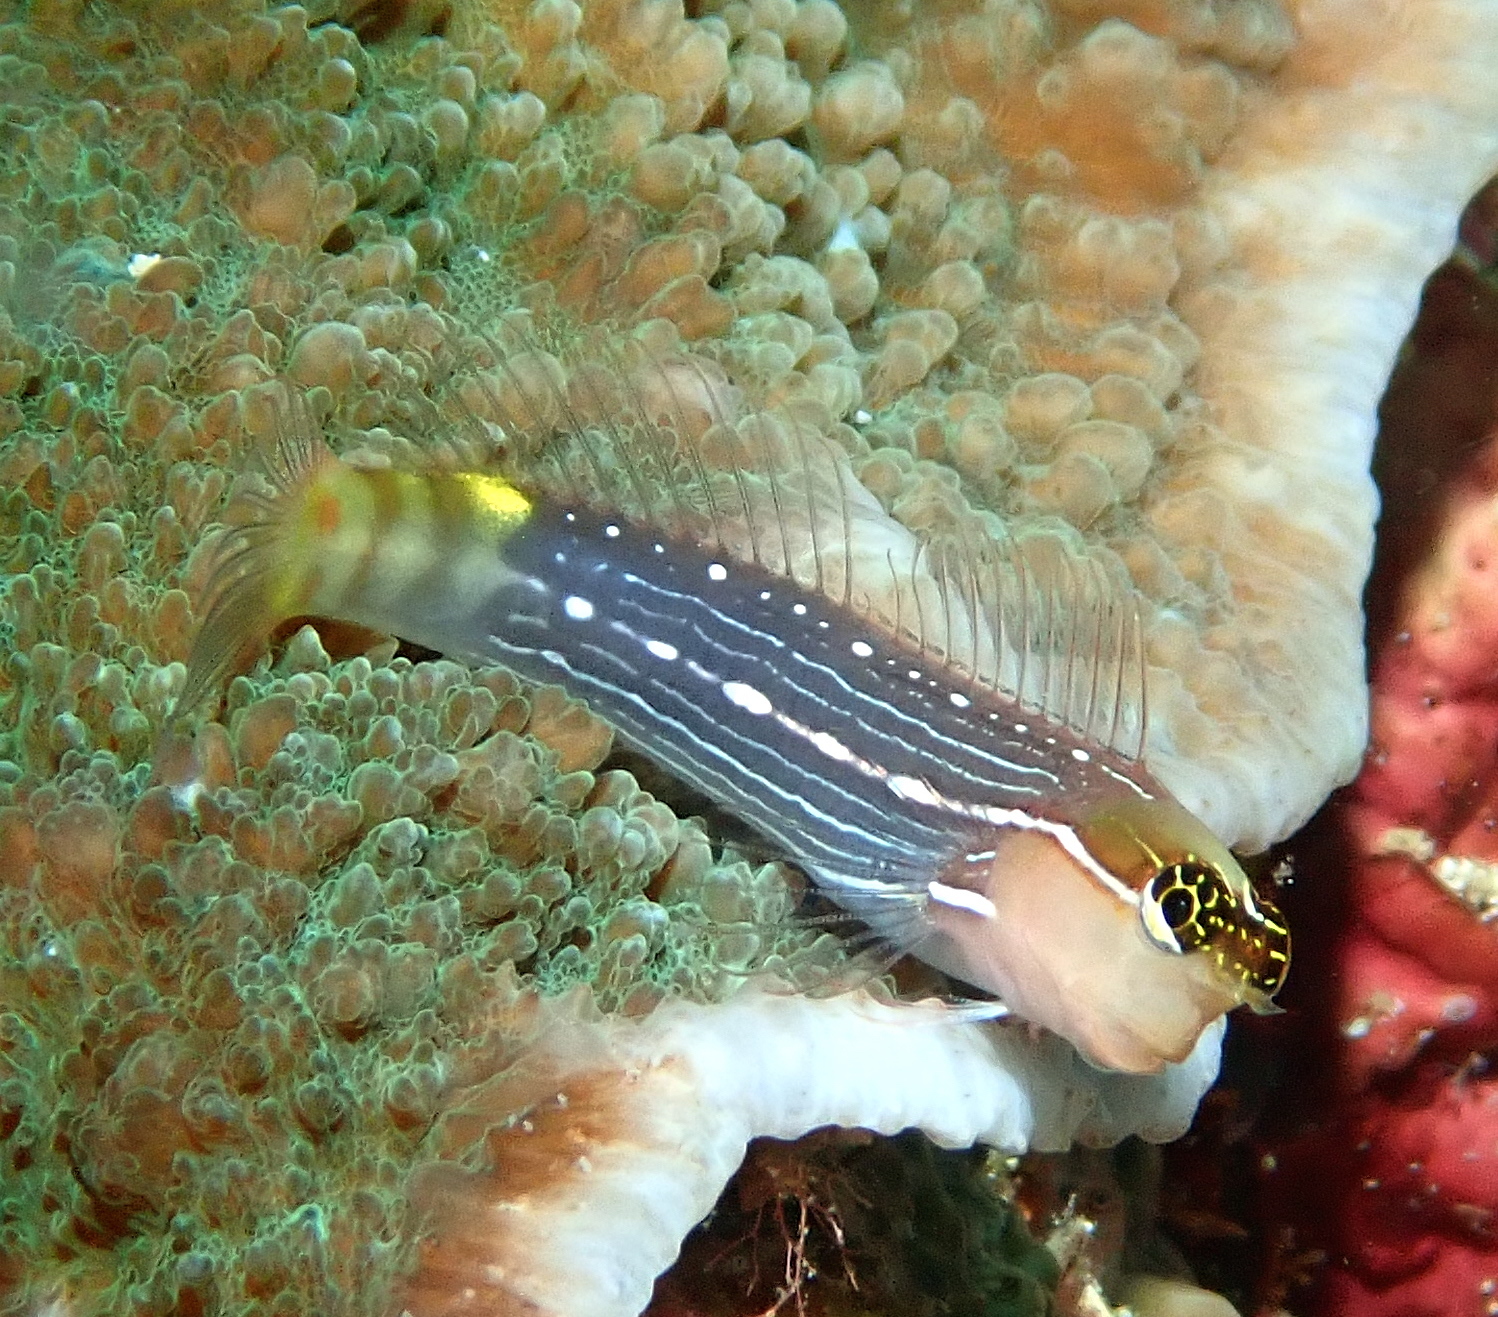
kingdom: Animalia
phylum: Chordata
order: Perciformes
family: Blenniidae
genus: Ecsenius
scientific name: Ecsenius pictus
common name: Pictus blenny
